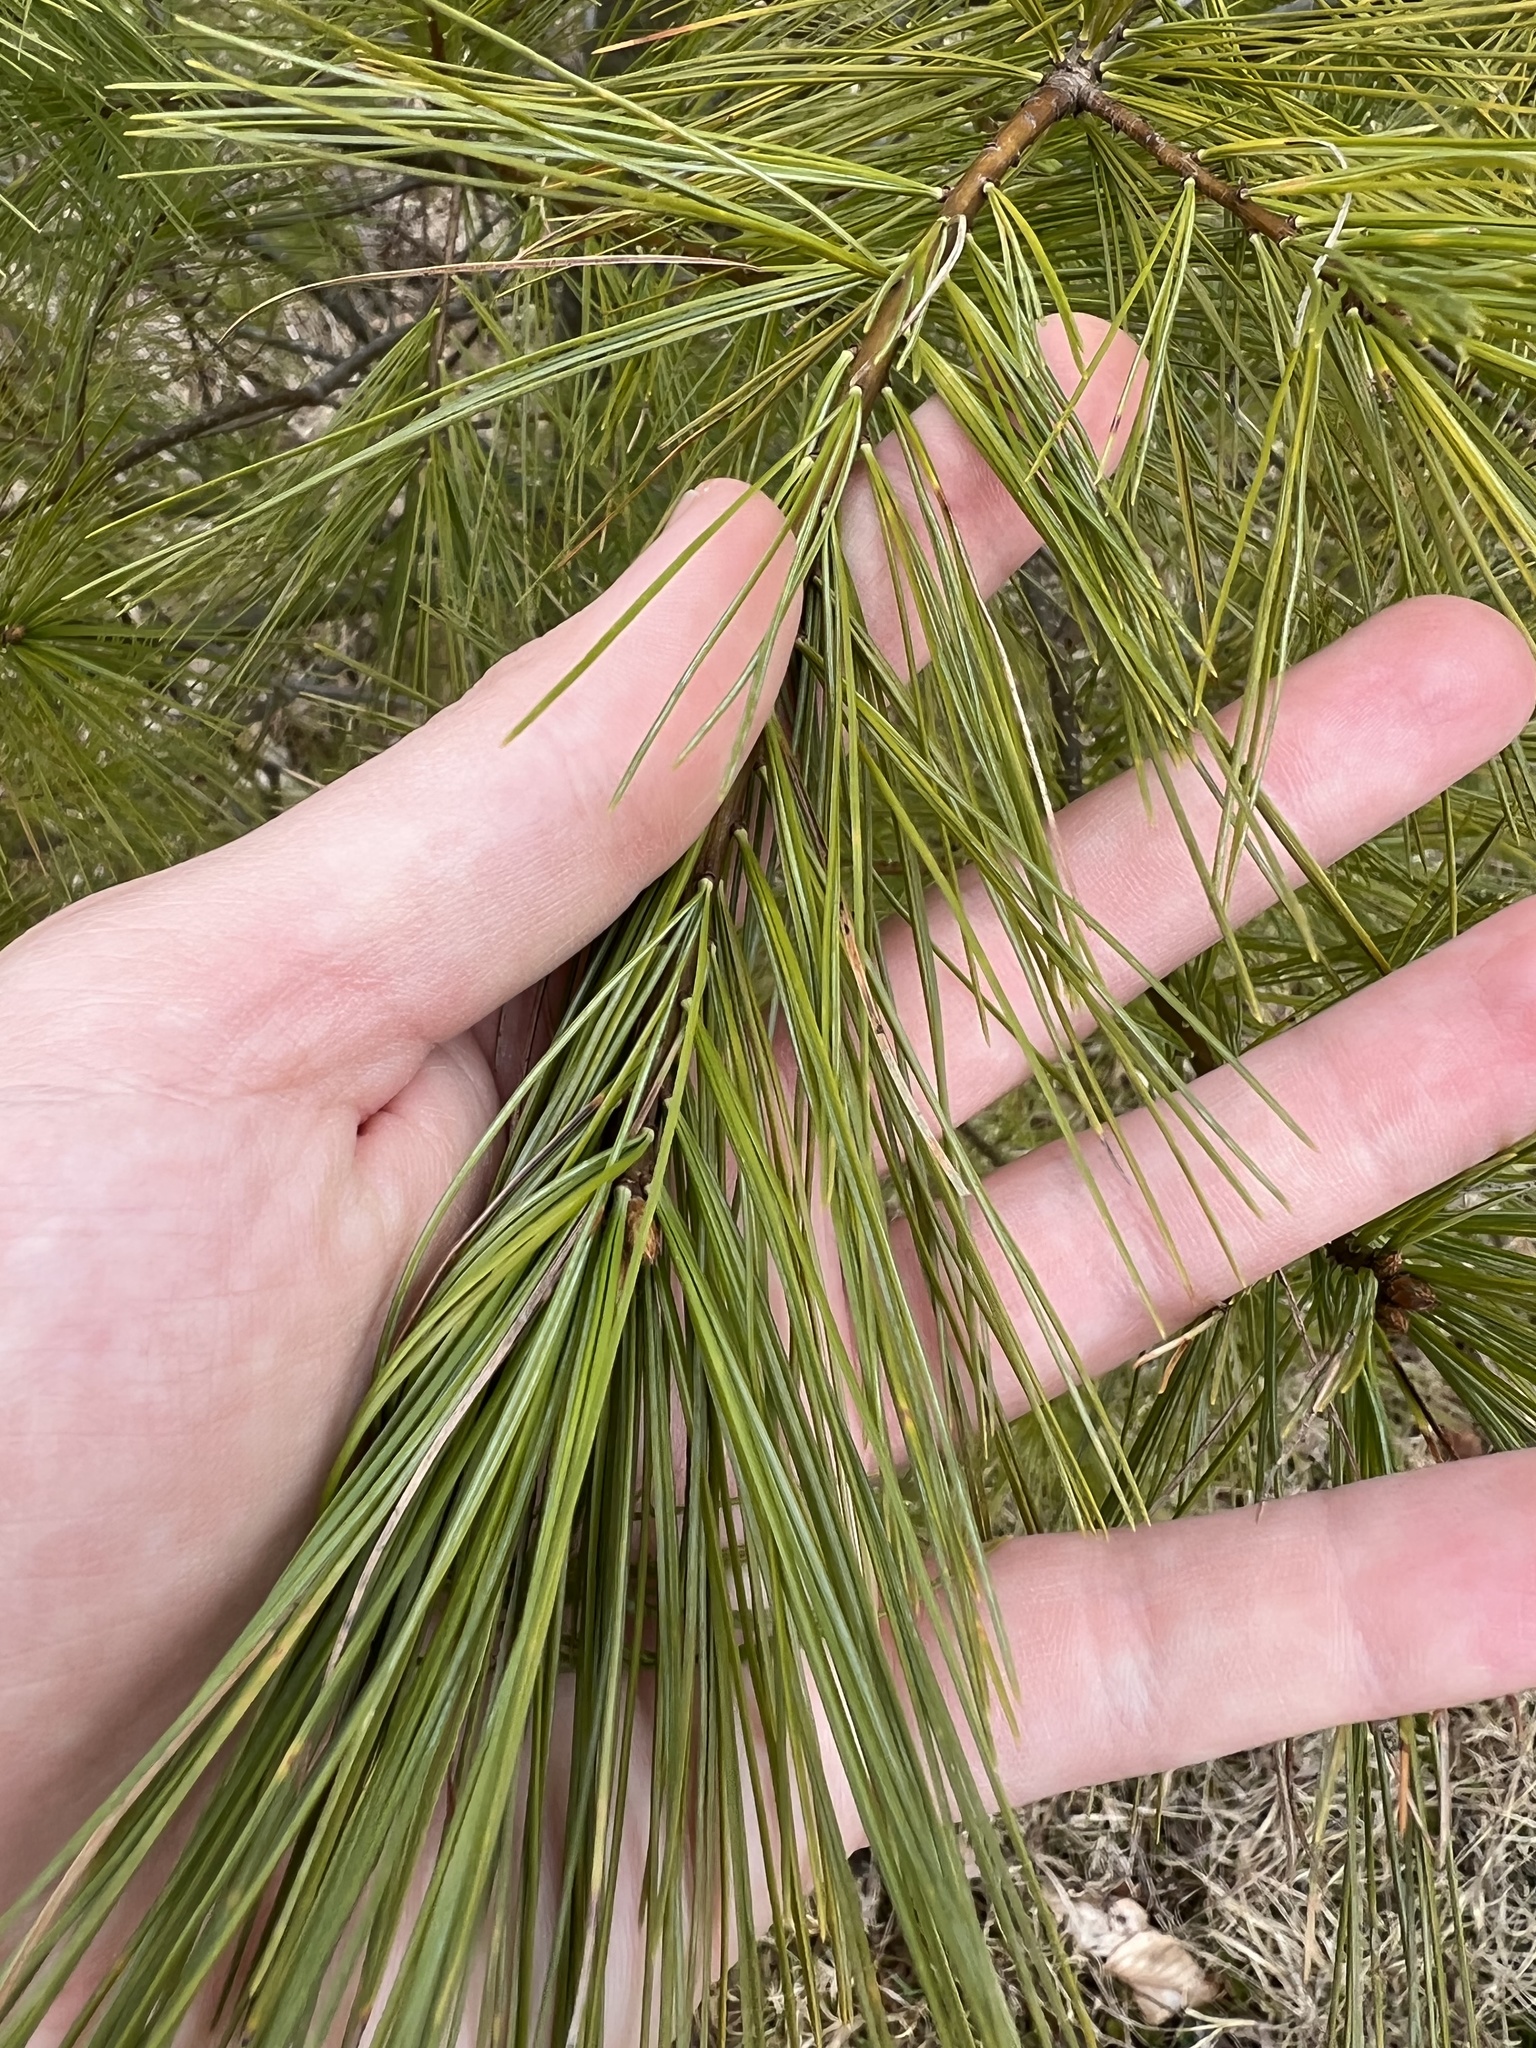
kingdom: Plantae
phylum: Tracheophyta
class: Pinopsida
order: Pinales
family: Pinaceae
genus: Pinus
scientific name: Pinus strobus
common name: Weymouth pine
